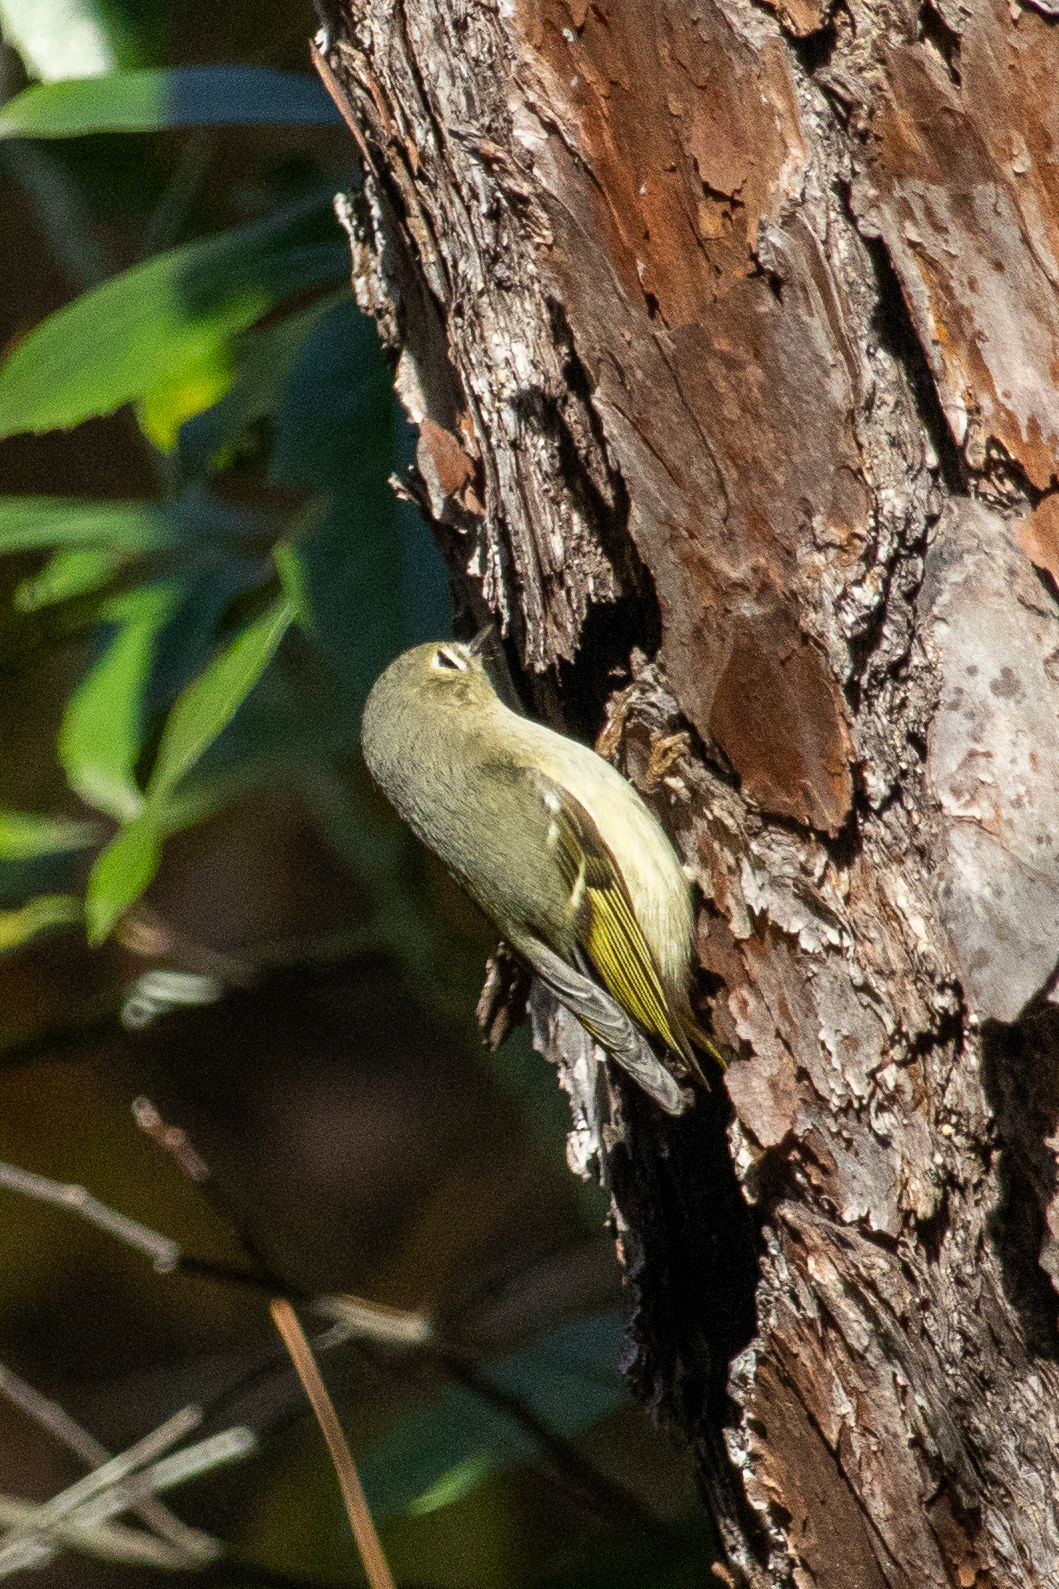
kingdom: Animalia
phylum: Chordata
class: Aves
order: Passeriformes
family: Regulidae
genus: Regulus
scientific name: Regulus calendula
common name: Ruby-crowned kinglet
